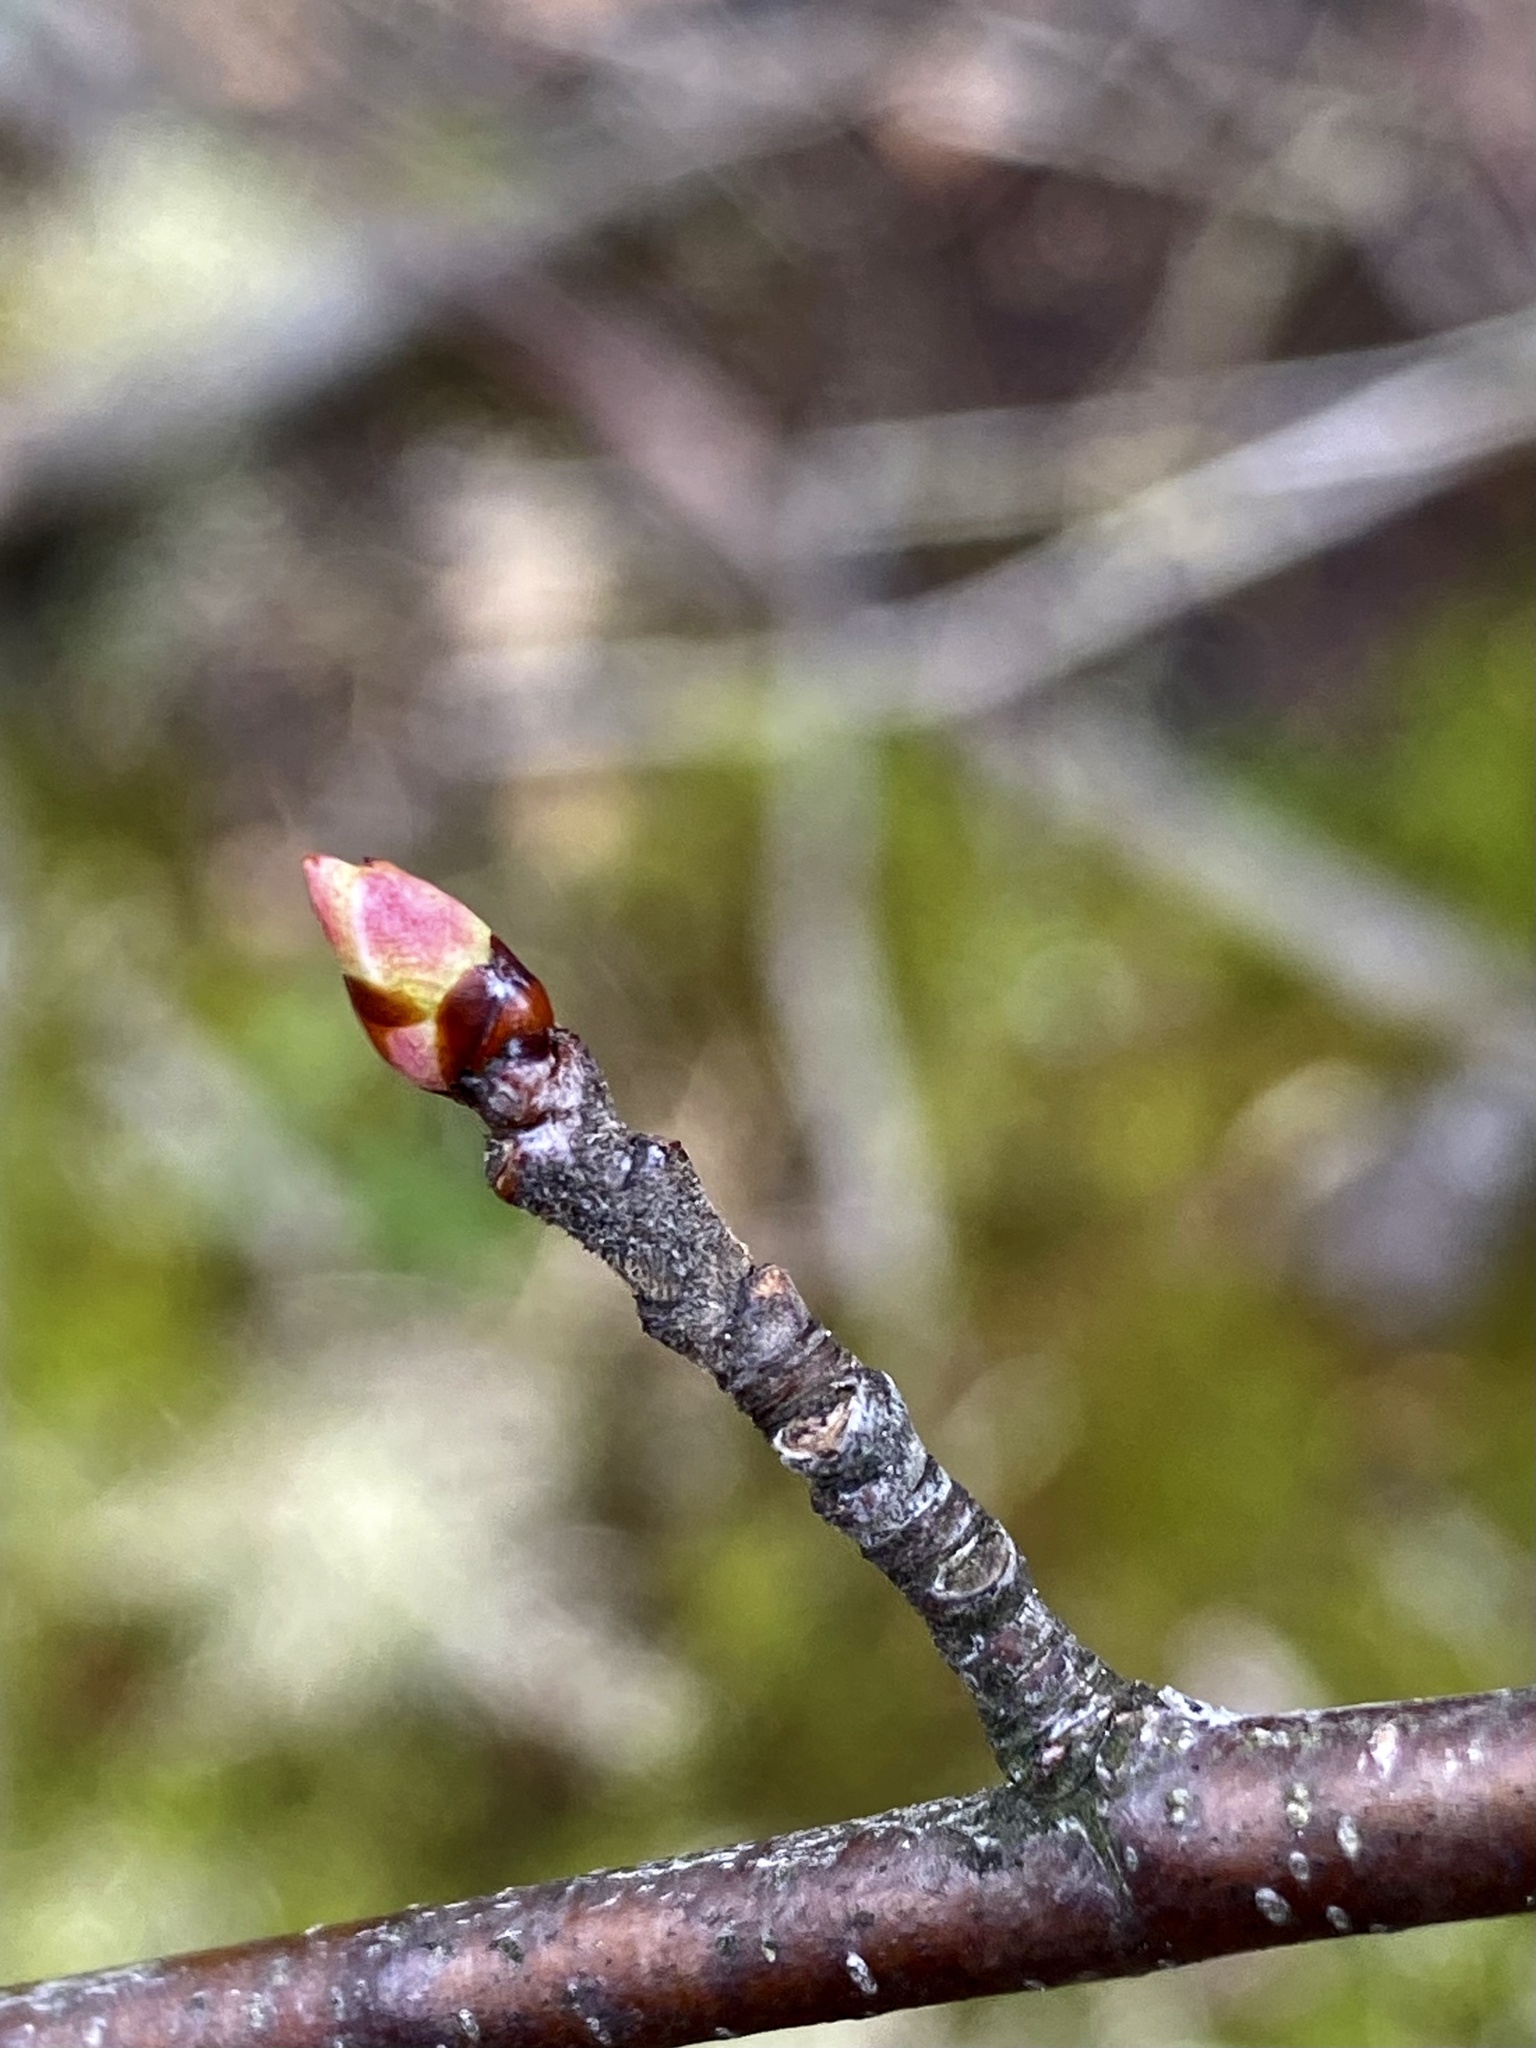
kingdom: Plantae
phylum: Tracheophyta
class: Magnoliopsida
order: Rosales
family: Rosaceae
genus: Prunus
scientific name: Prunus serotina
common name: Black cherry
